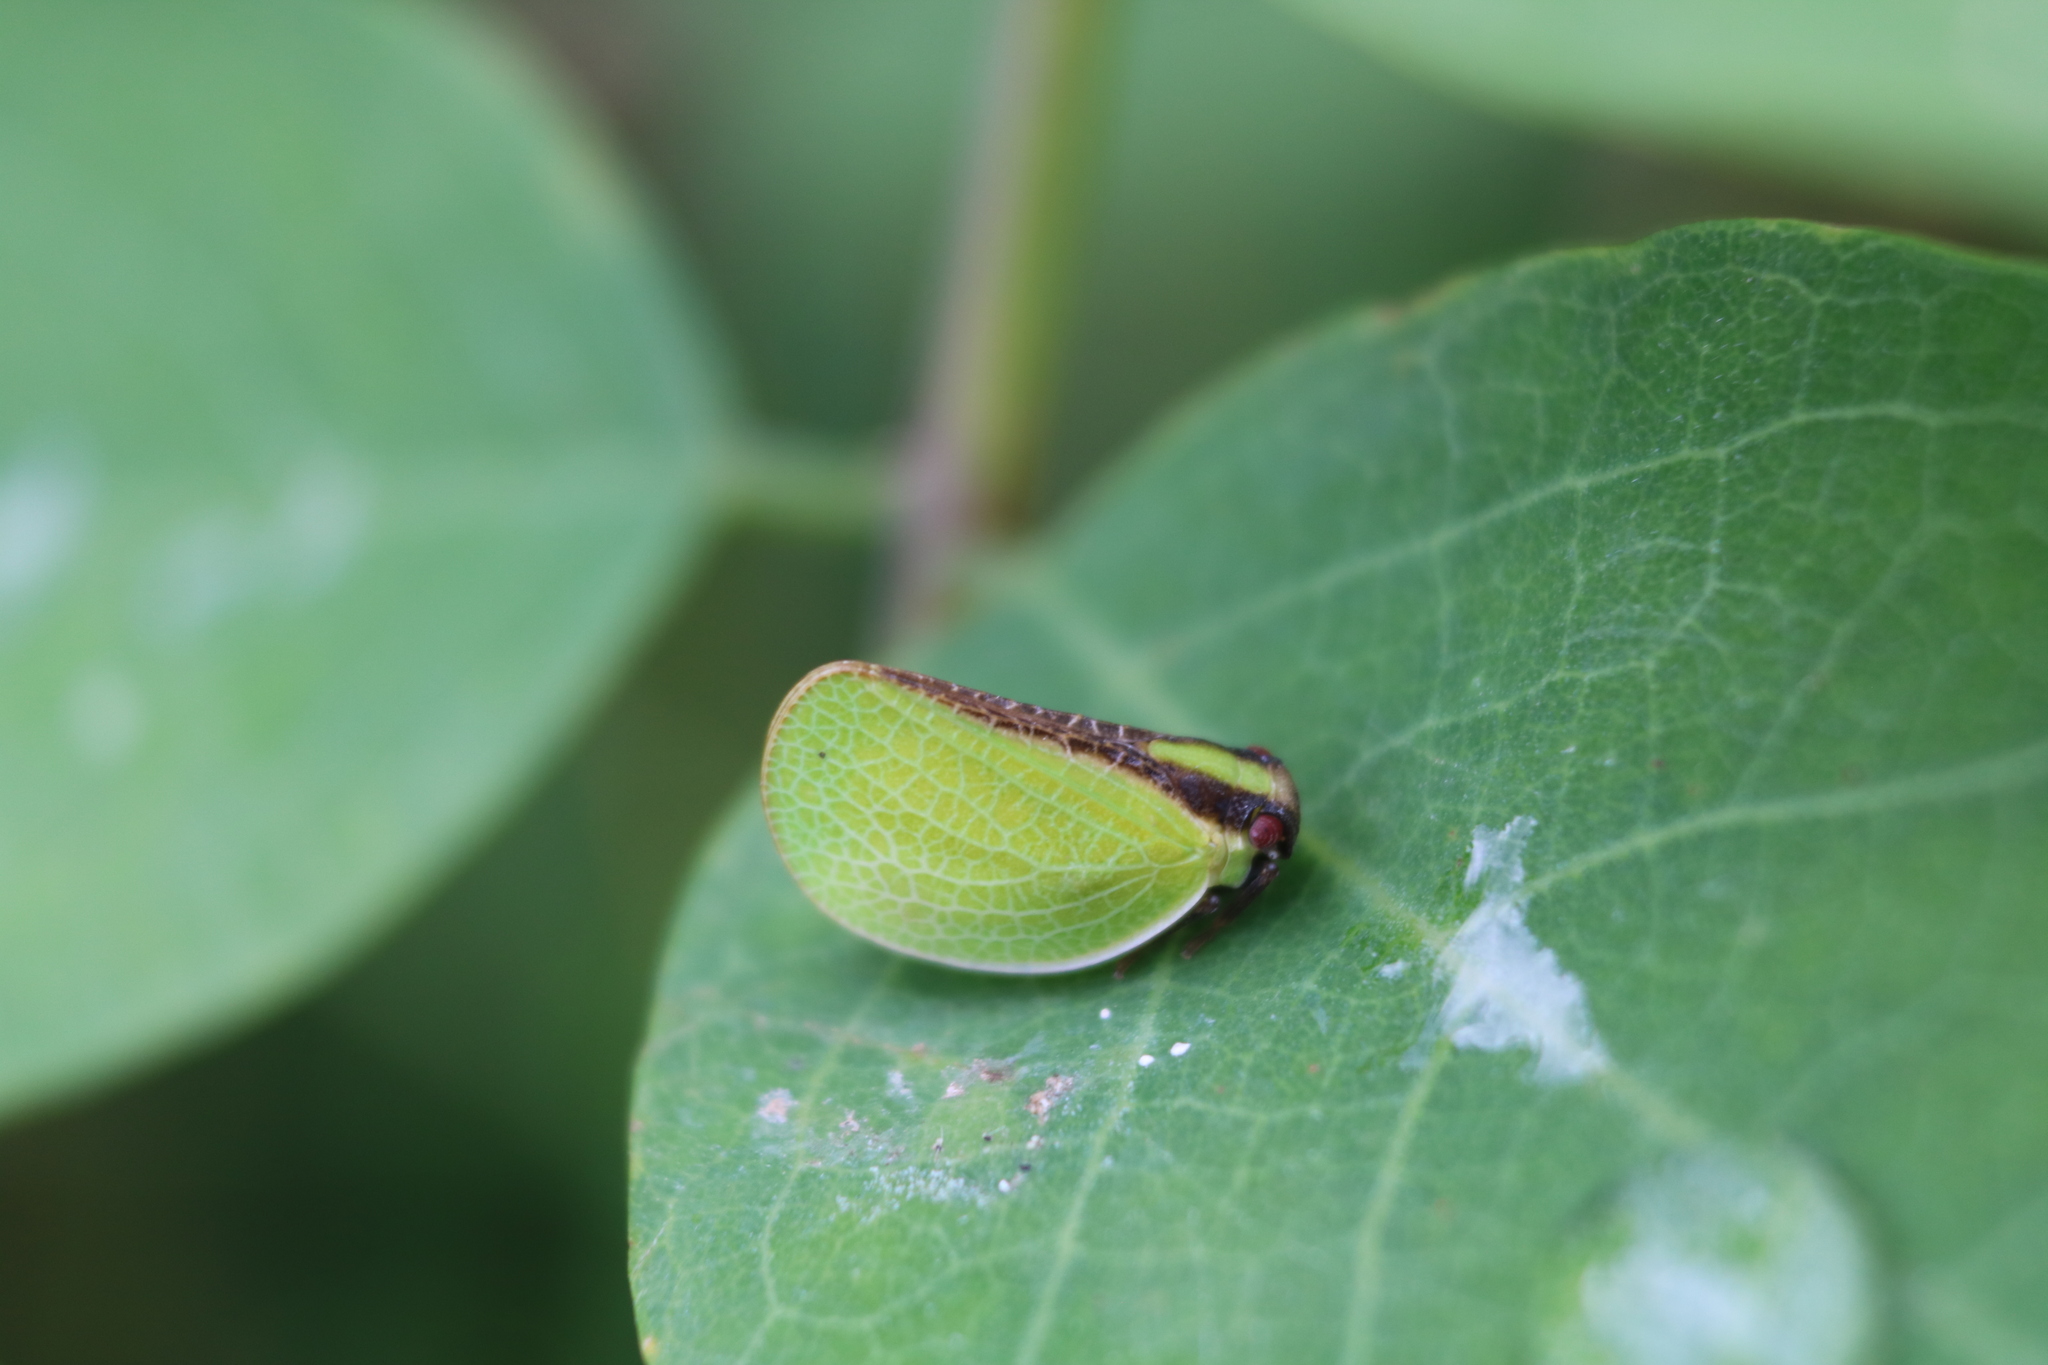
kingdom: Animalia
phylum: Arthropoda
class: Insecta
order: Hemiptera
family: Acanaloniidae
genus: Acanalonia
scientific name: Acanalonia bivittata
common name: Two-striped planthopper
